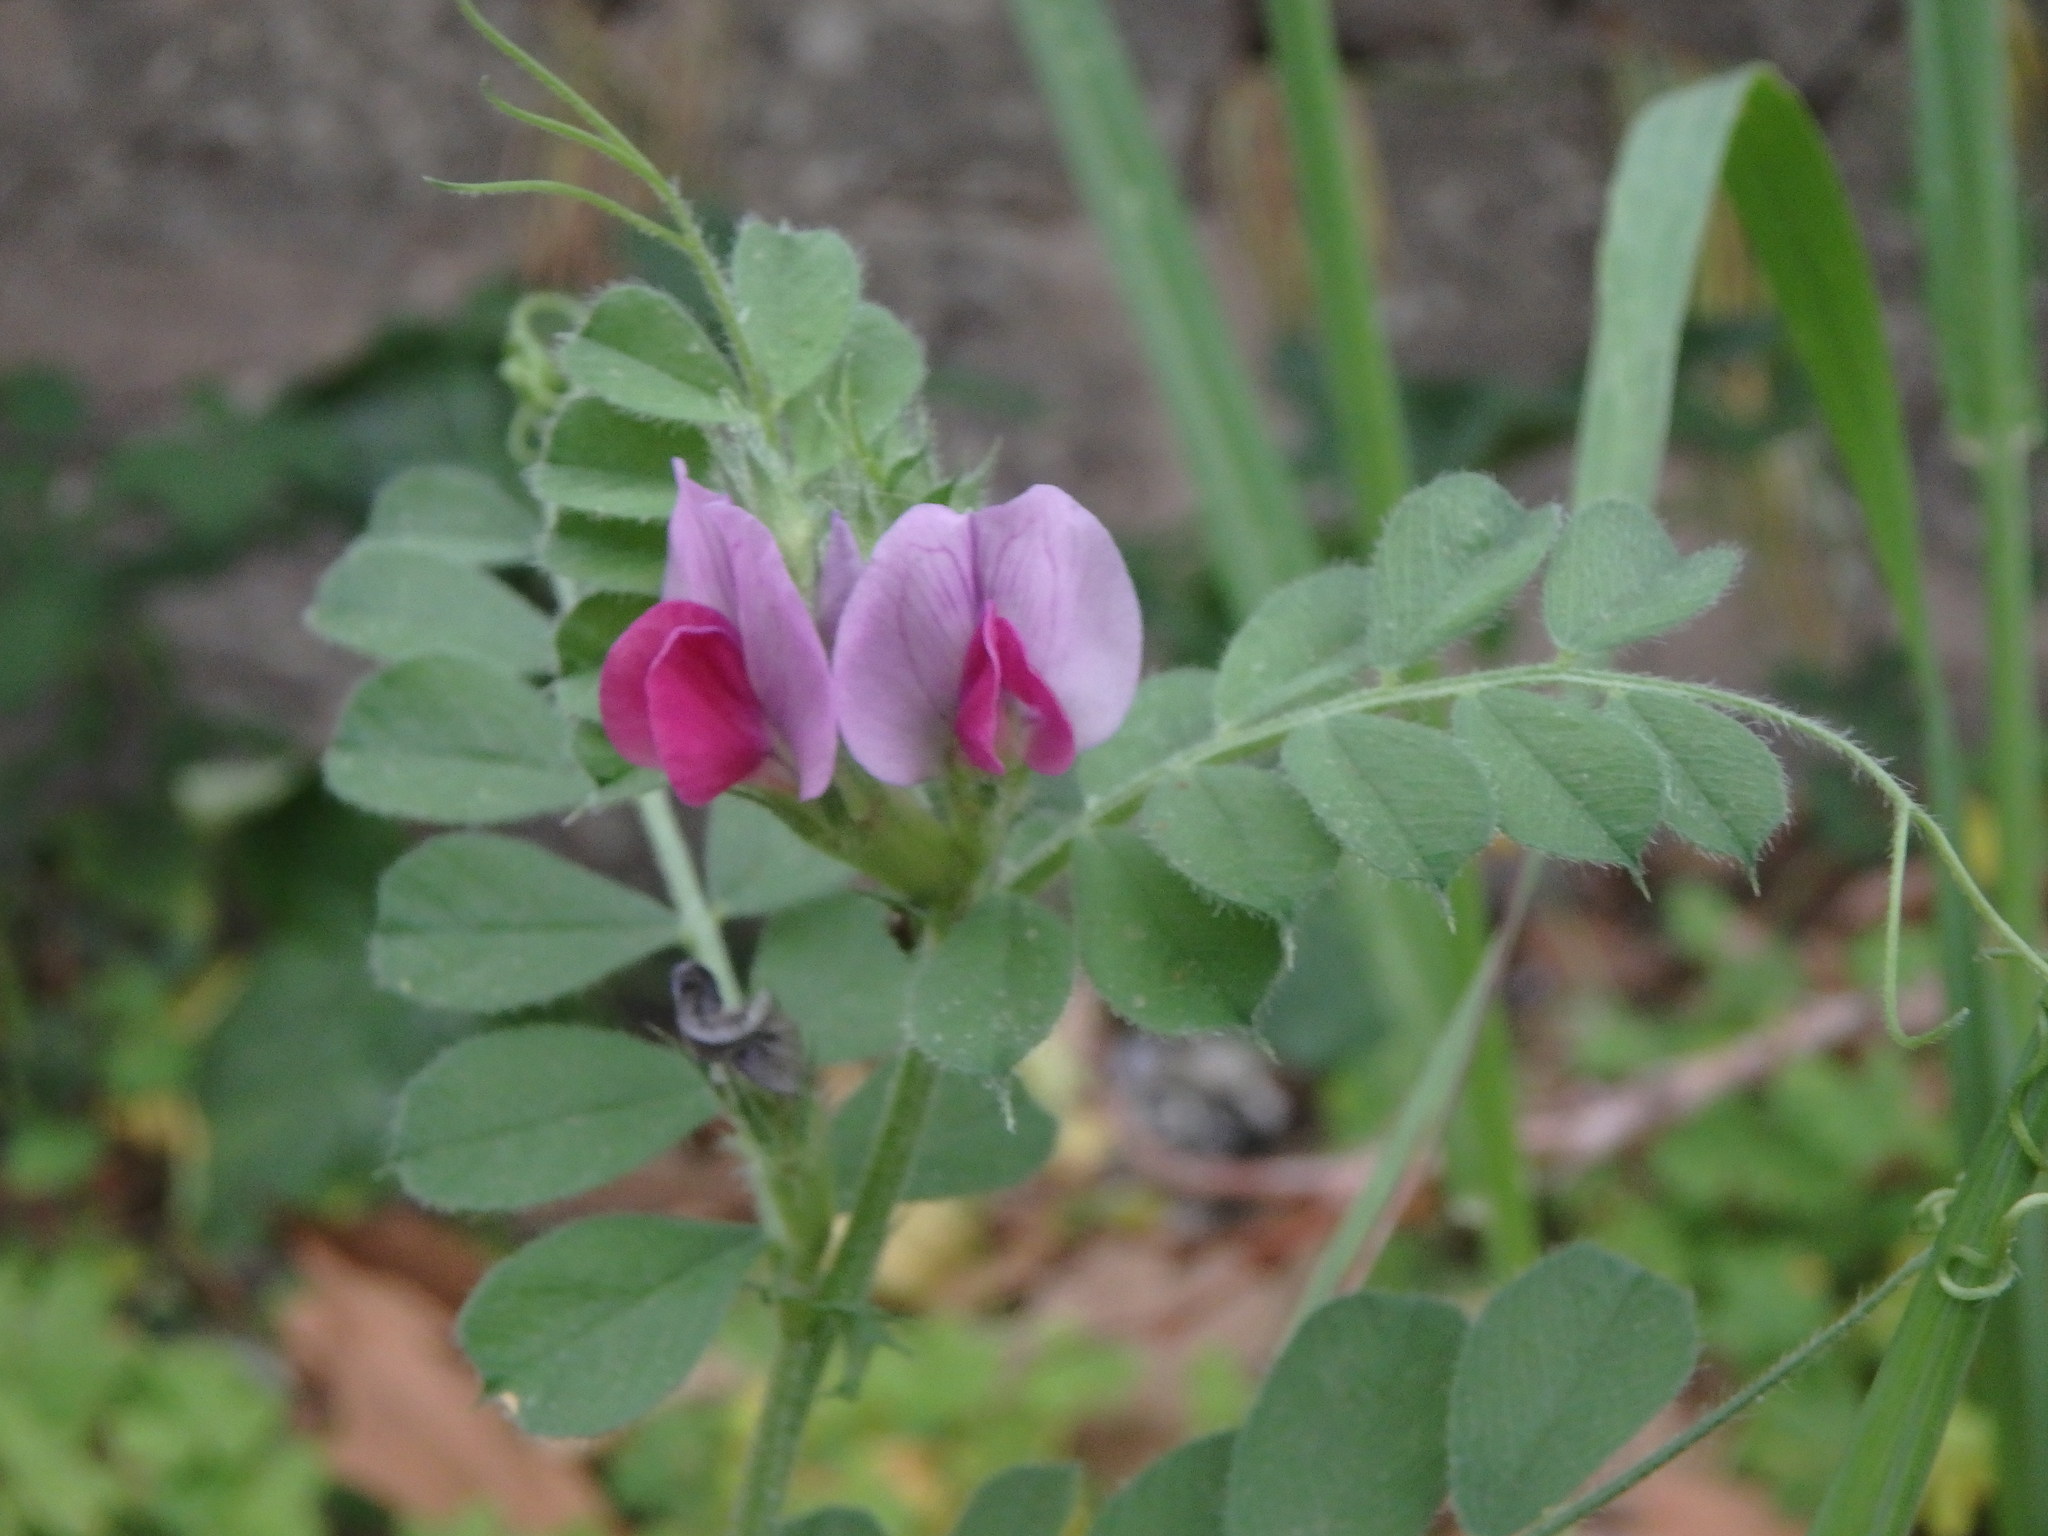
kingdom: Plantae
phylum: Tracheophyta
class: Magnoliopsida
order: Fabales
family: Fabaceae
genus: Vicia
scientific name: Vicia sativa
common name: Garden vetch
